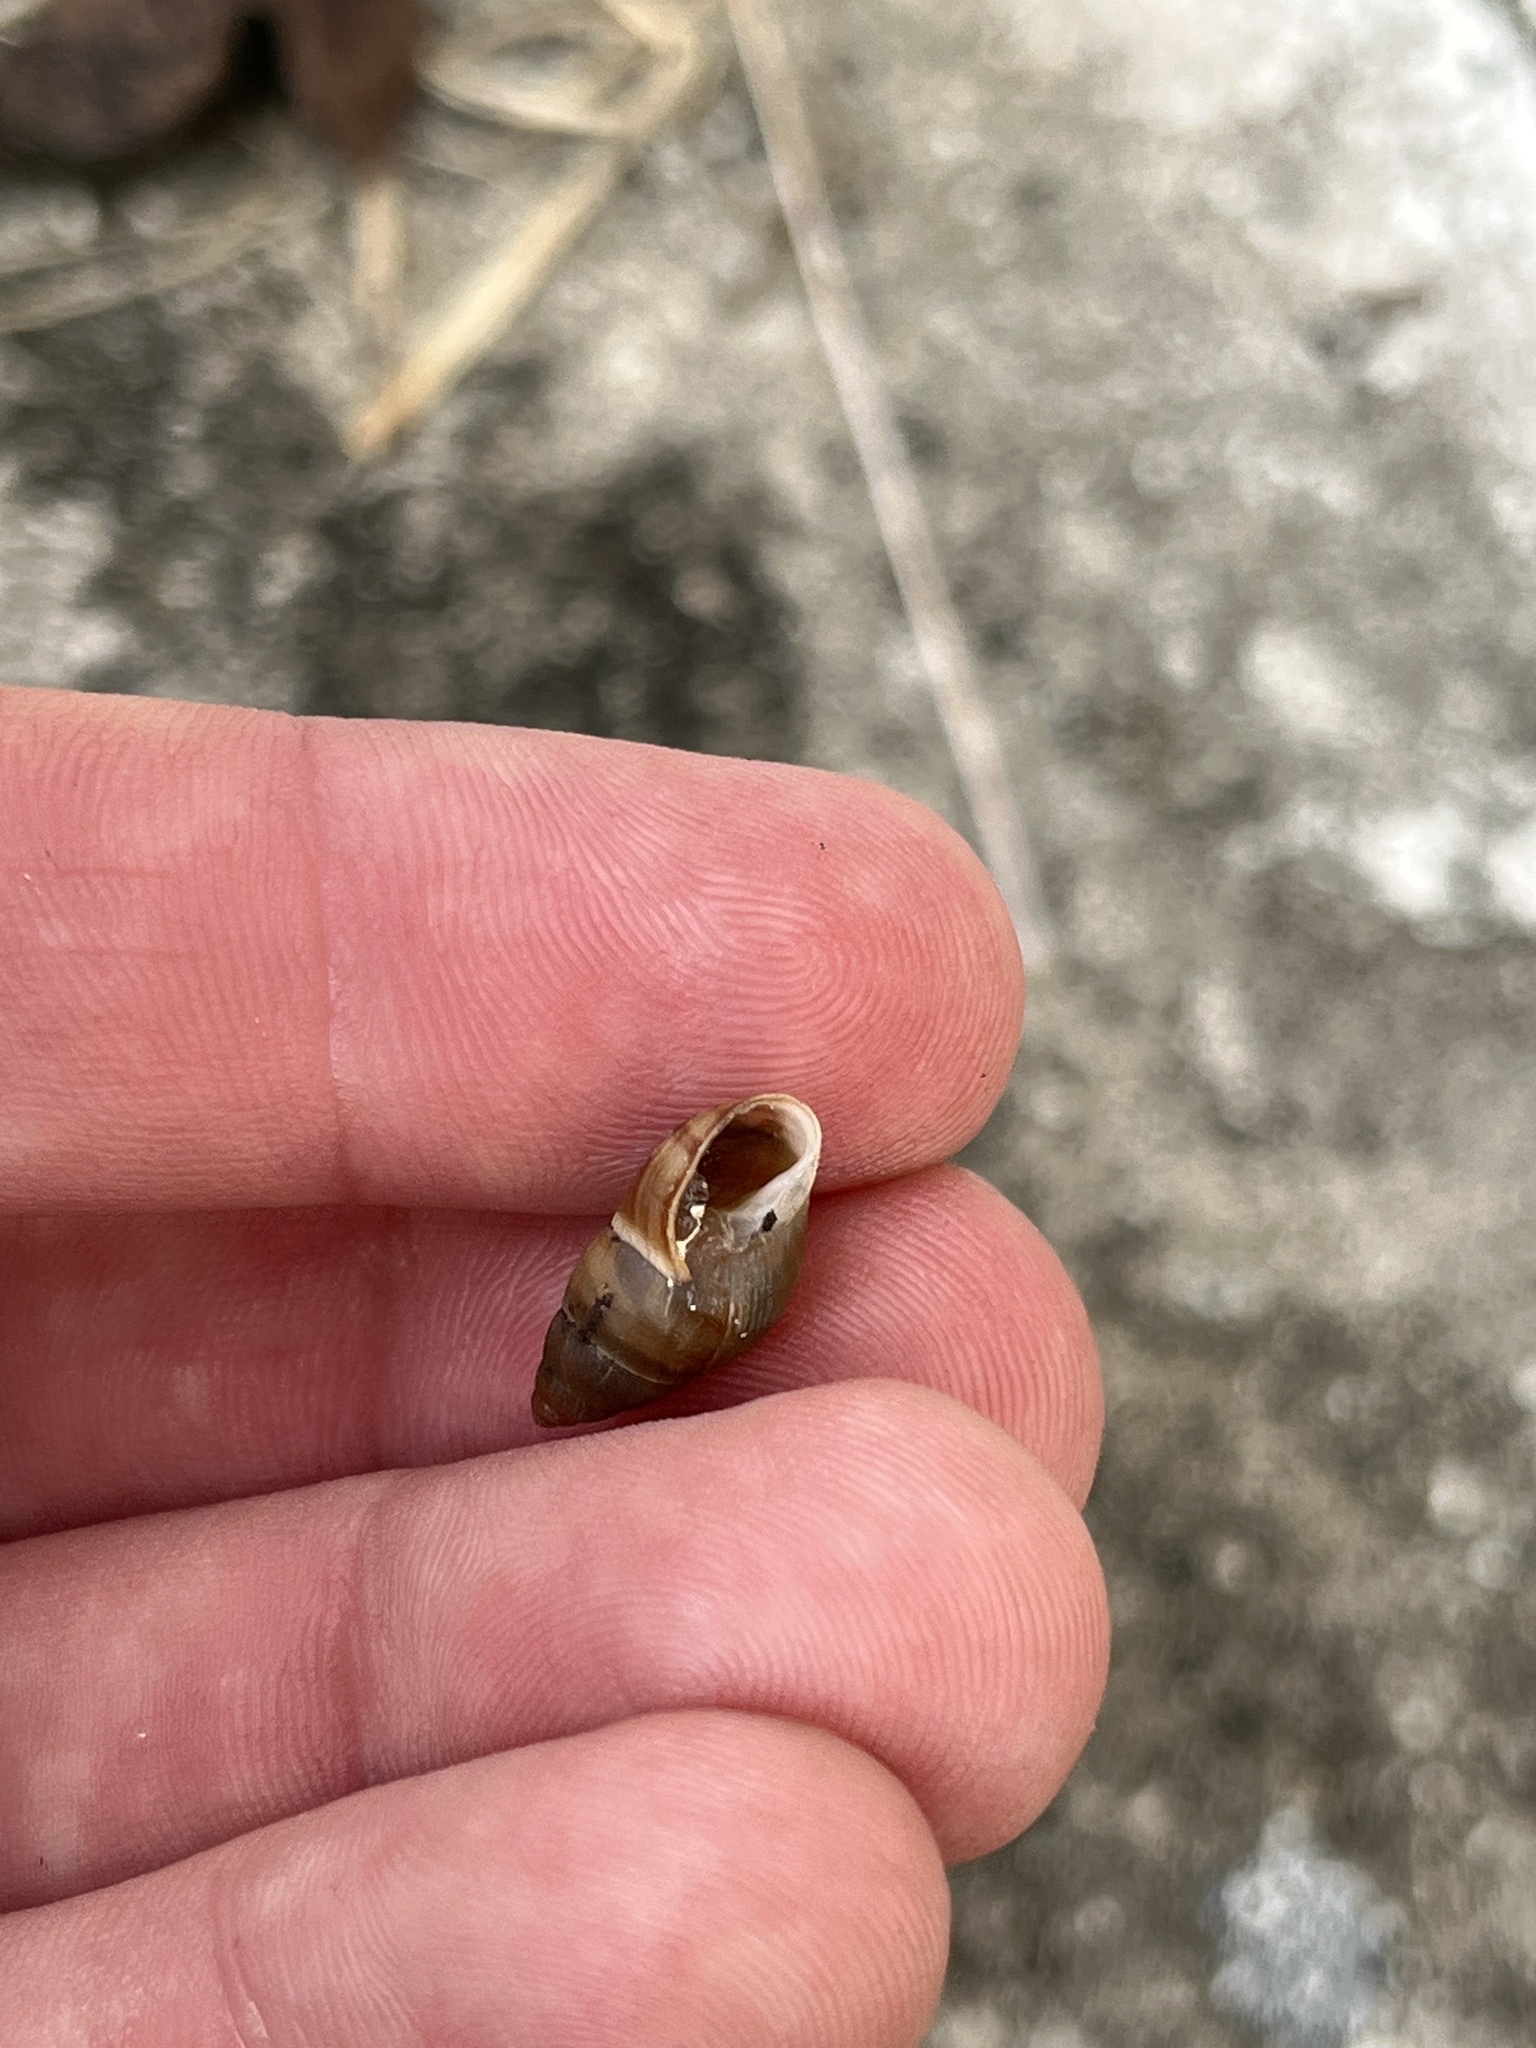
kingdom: Animalia
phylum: Mollusca
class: Gastropoda
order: Stylommatophora
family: Bulimulidae
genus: Bulimulus
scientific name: Bulimulus guadalupensis
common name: West indian bulimulus
